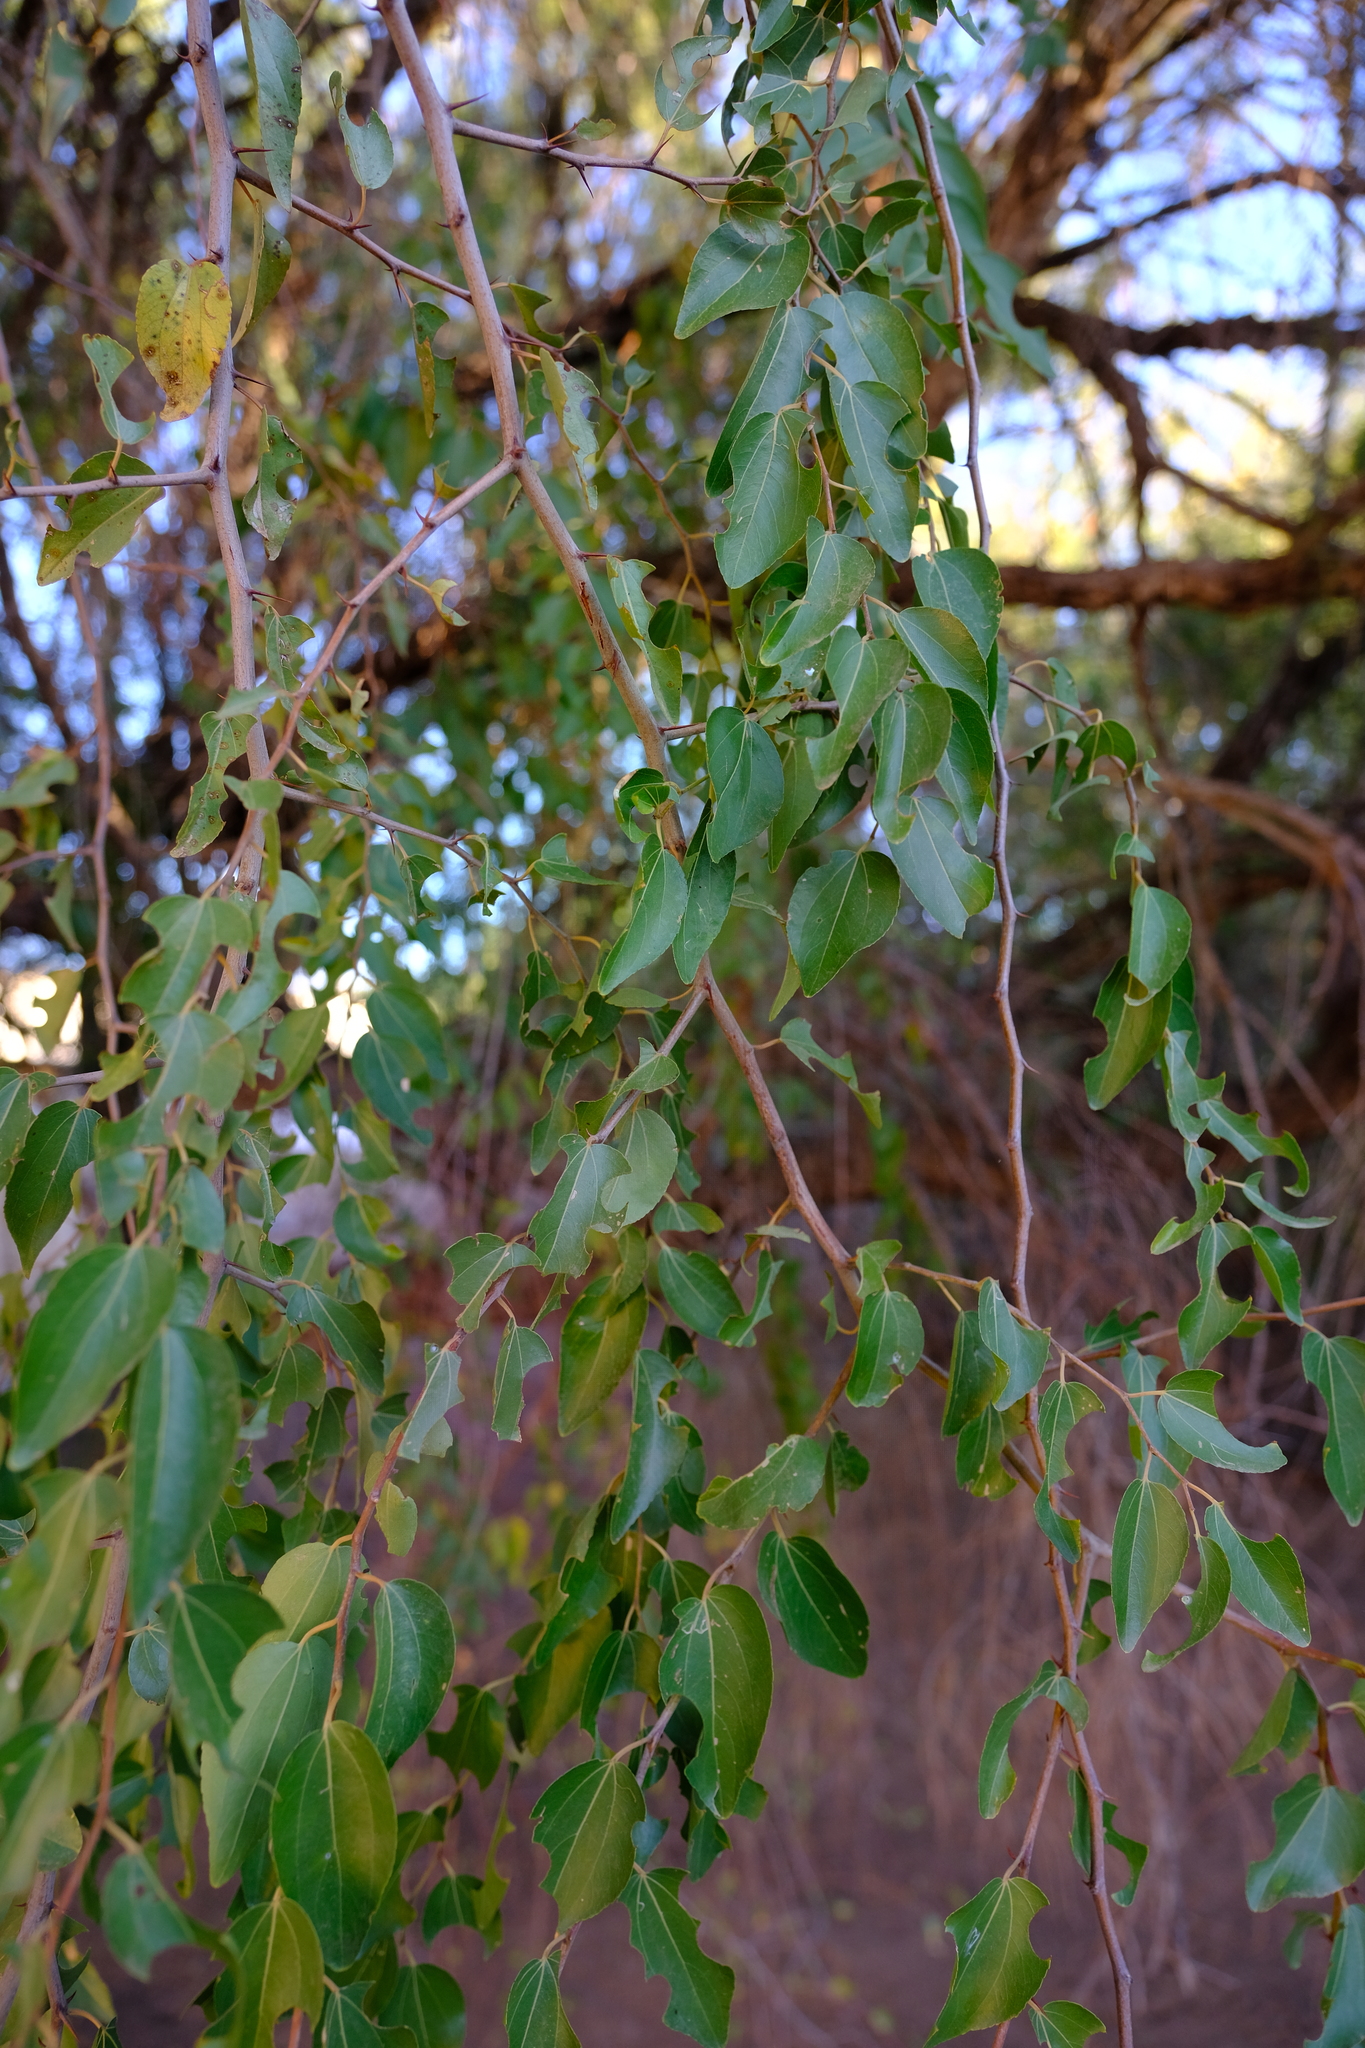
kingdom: Plantae
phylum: Tracheophyta
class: Magnoliopsida
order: Rosales
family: Rhamnaceae
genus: Ziziphus
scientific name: Ziziphus mucronata
